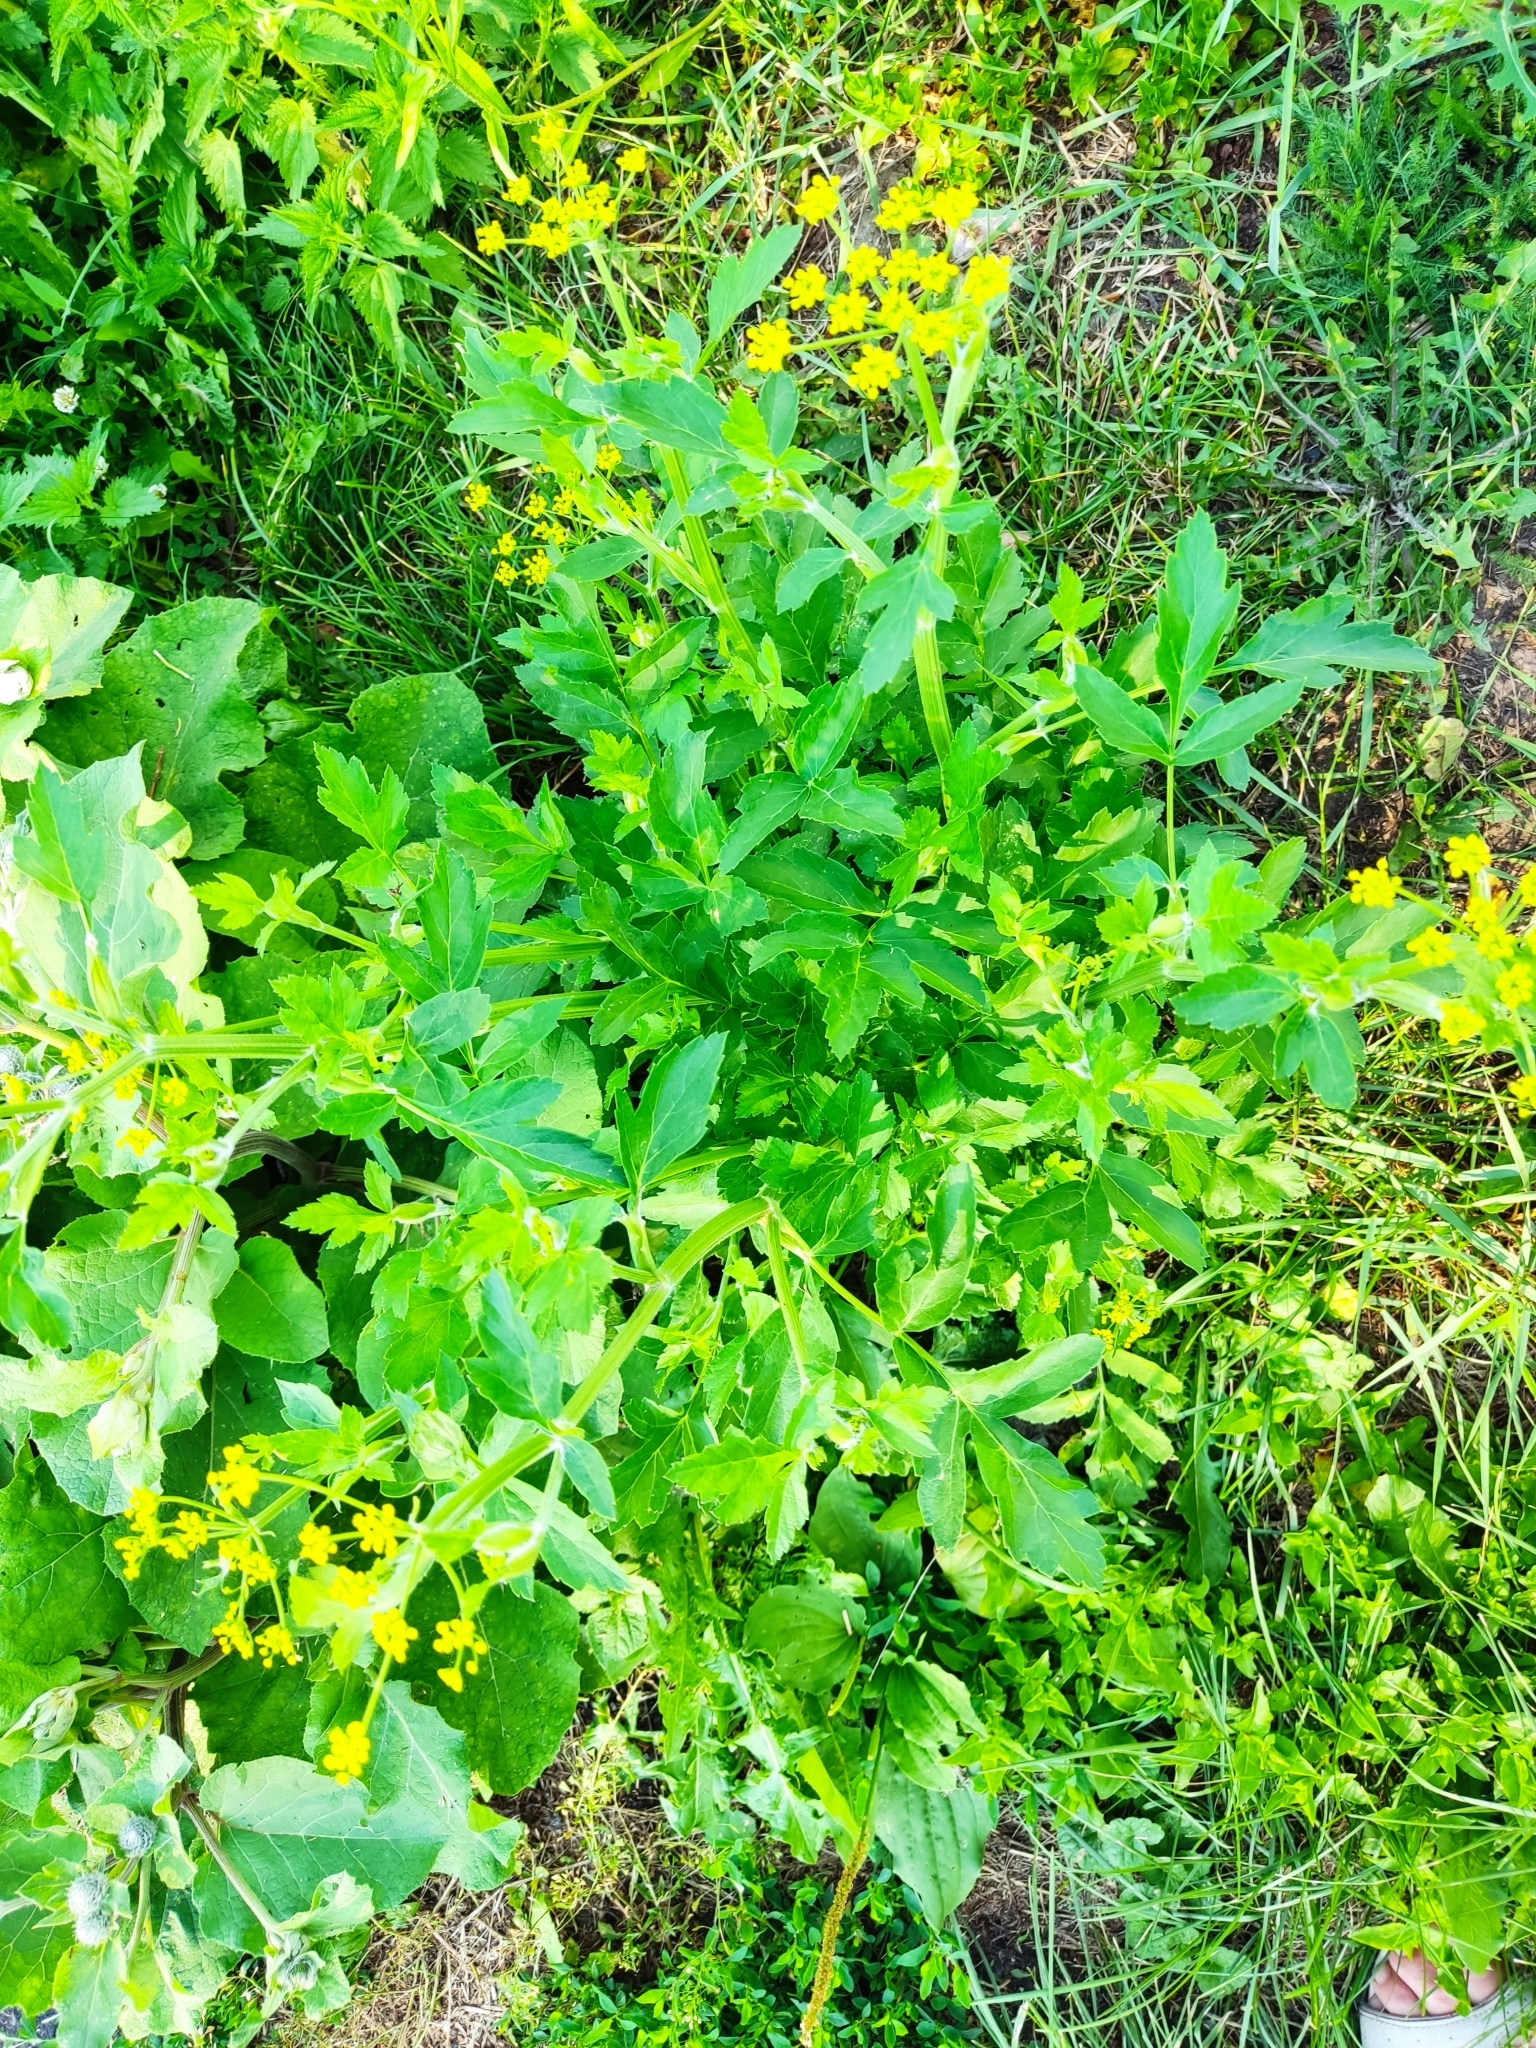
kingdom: Plantae
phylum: Tracheophyta
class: Magnoliopsida
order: Apiales
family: Apiaceae
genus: Pastinaca
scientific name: Pastinaca sativa
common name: Wild parsnip
